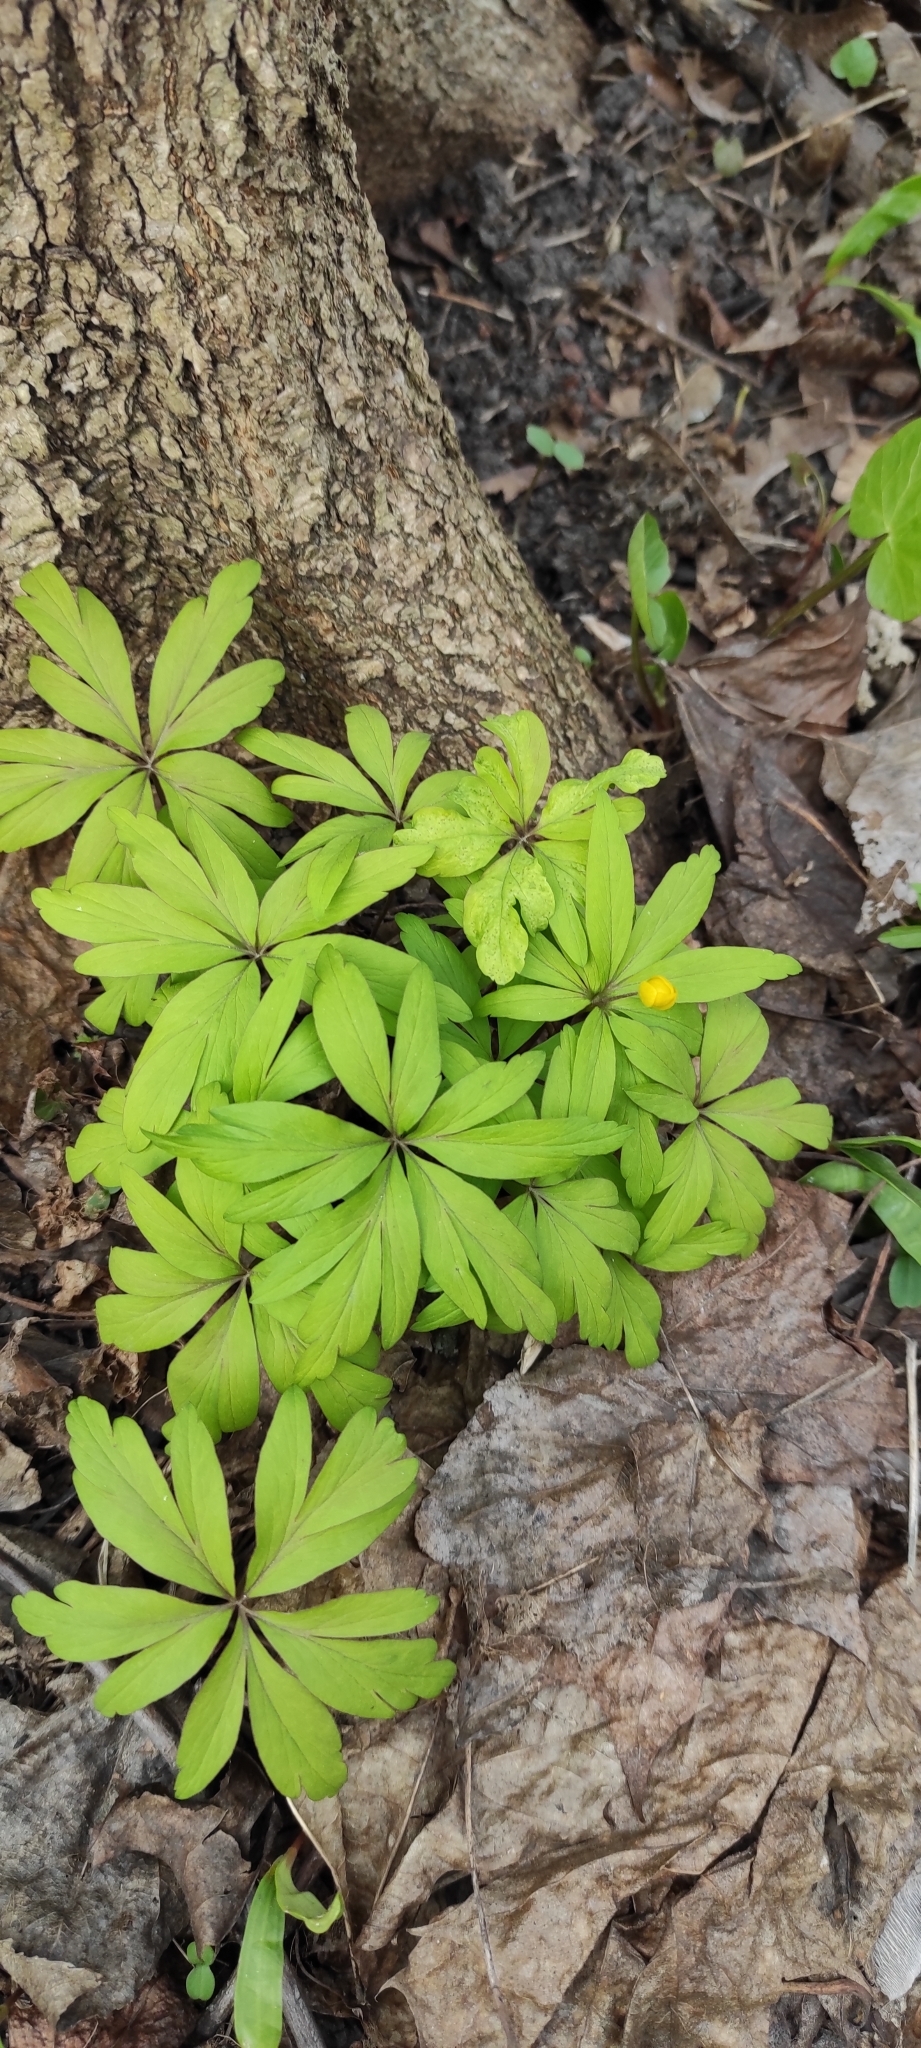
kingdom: Plantae
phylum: Tracheophyta
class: Magnoliopsida
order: Ranunculales
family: Ranunculaceae
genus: Anemone
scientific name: Anemone ranunculoides
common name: Yellow anemone
